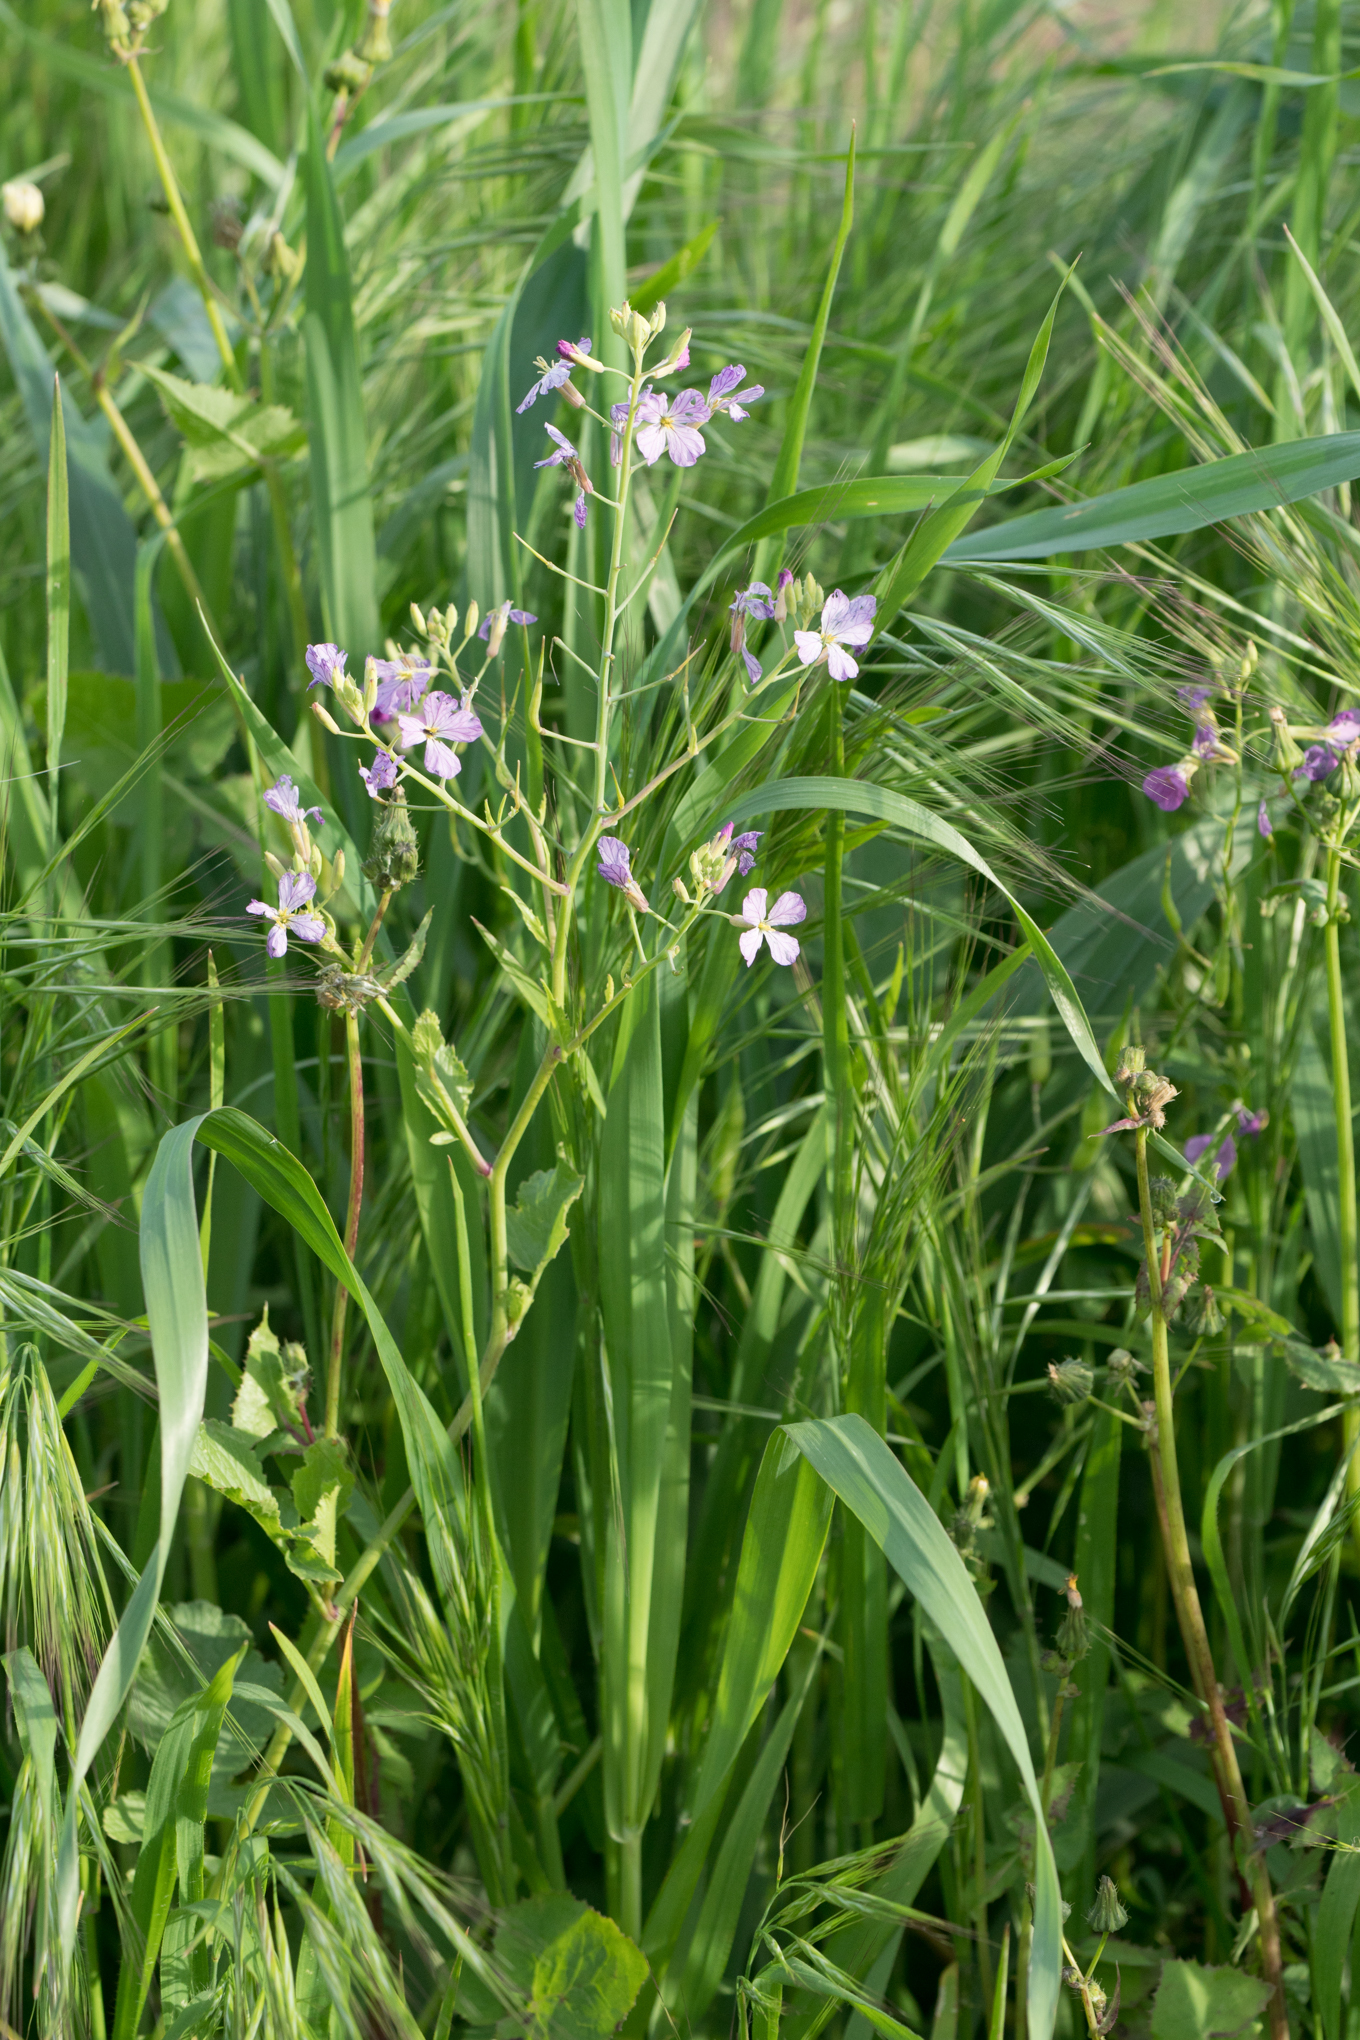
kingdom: Plantae
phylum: Tracheophyta
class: Magnoliopsida
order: Brassicales
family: Brassicaceae
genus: Raphanus
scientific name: Raphanus sativus
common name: Cultivated radish
